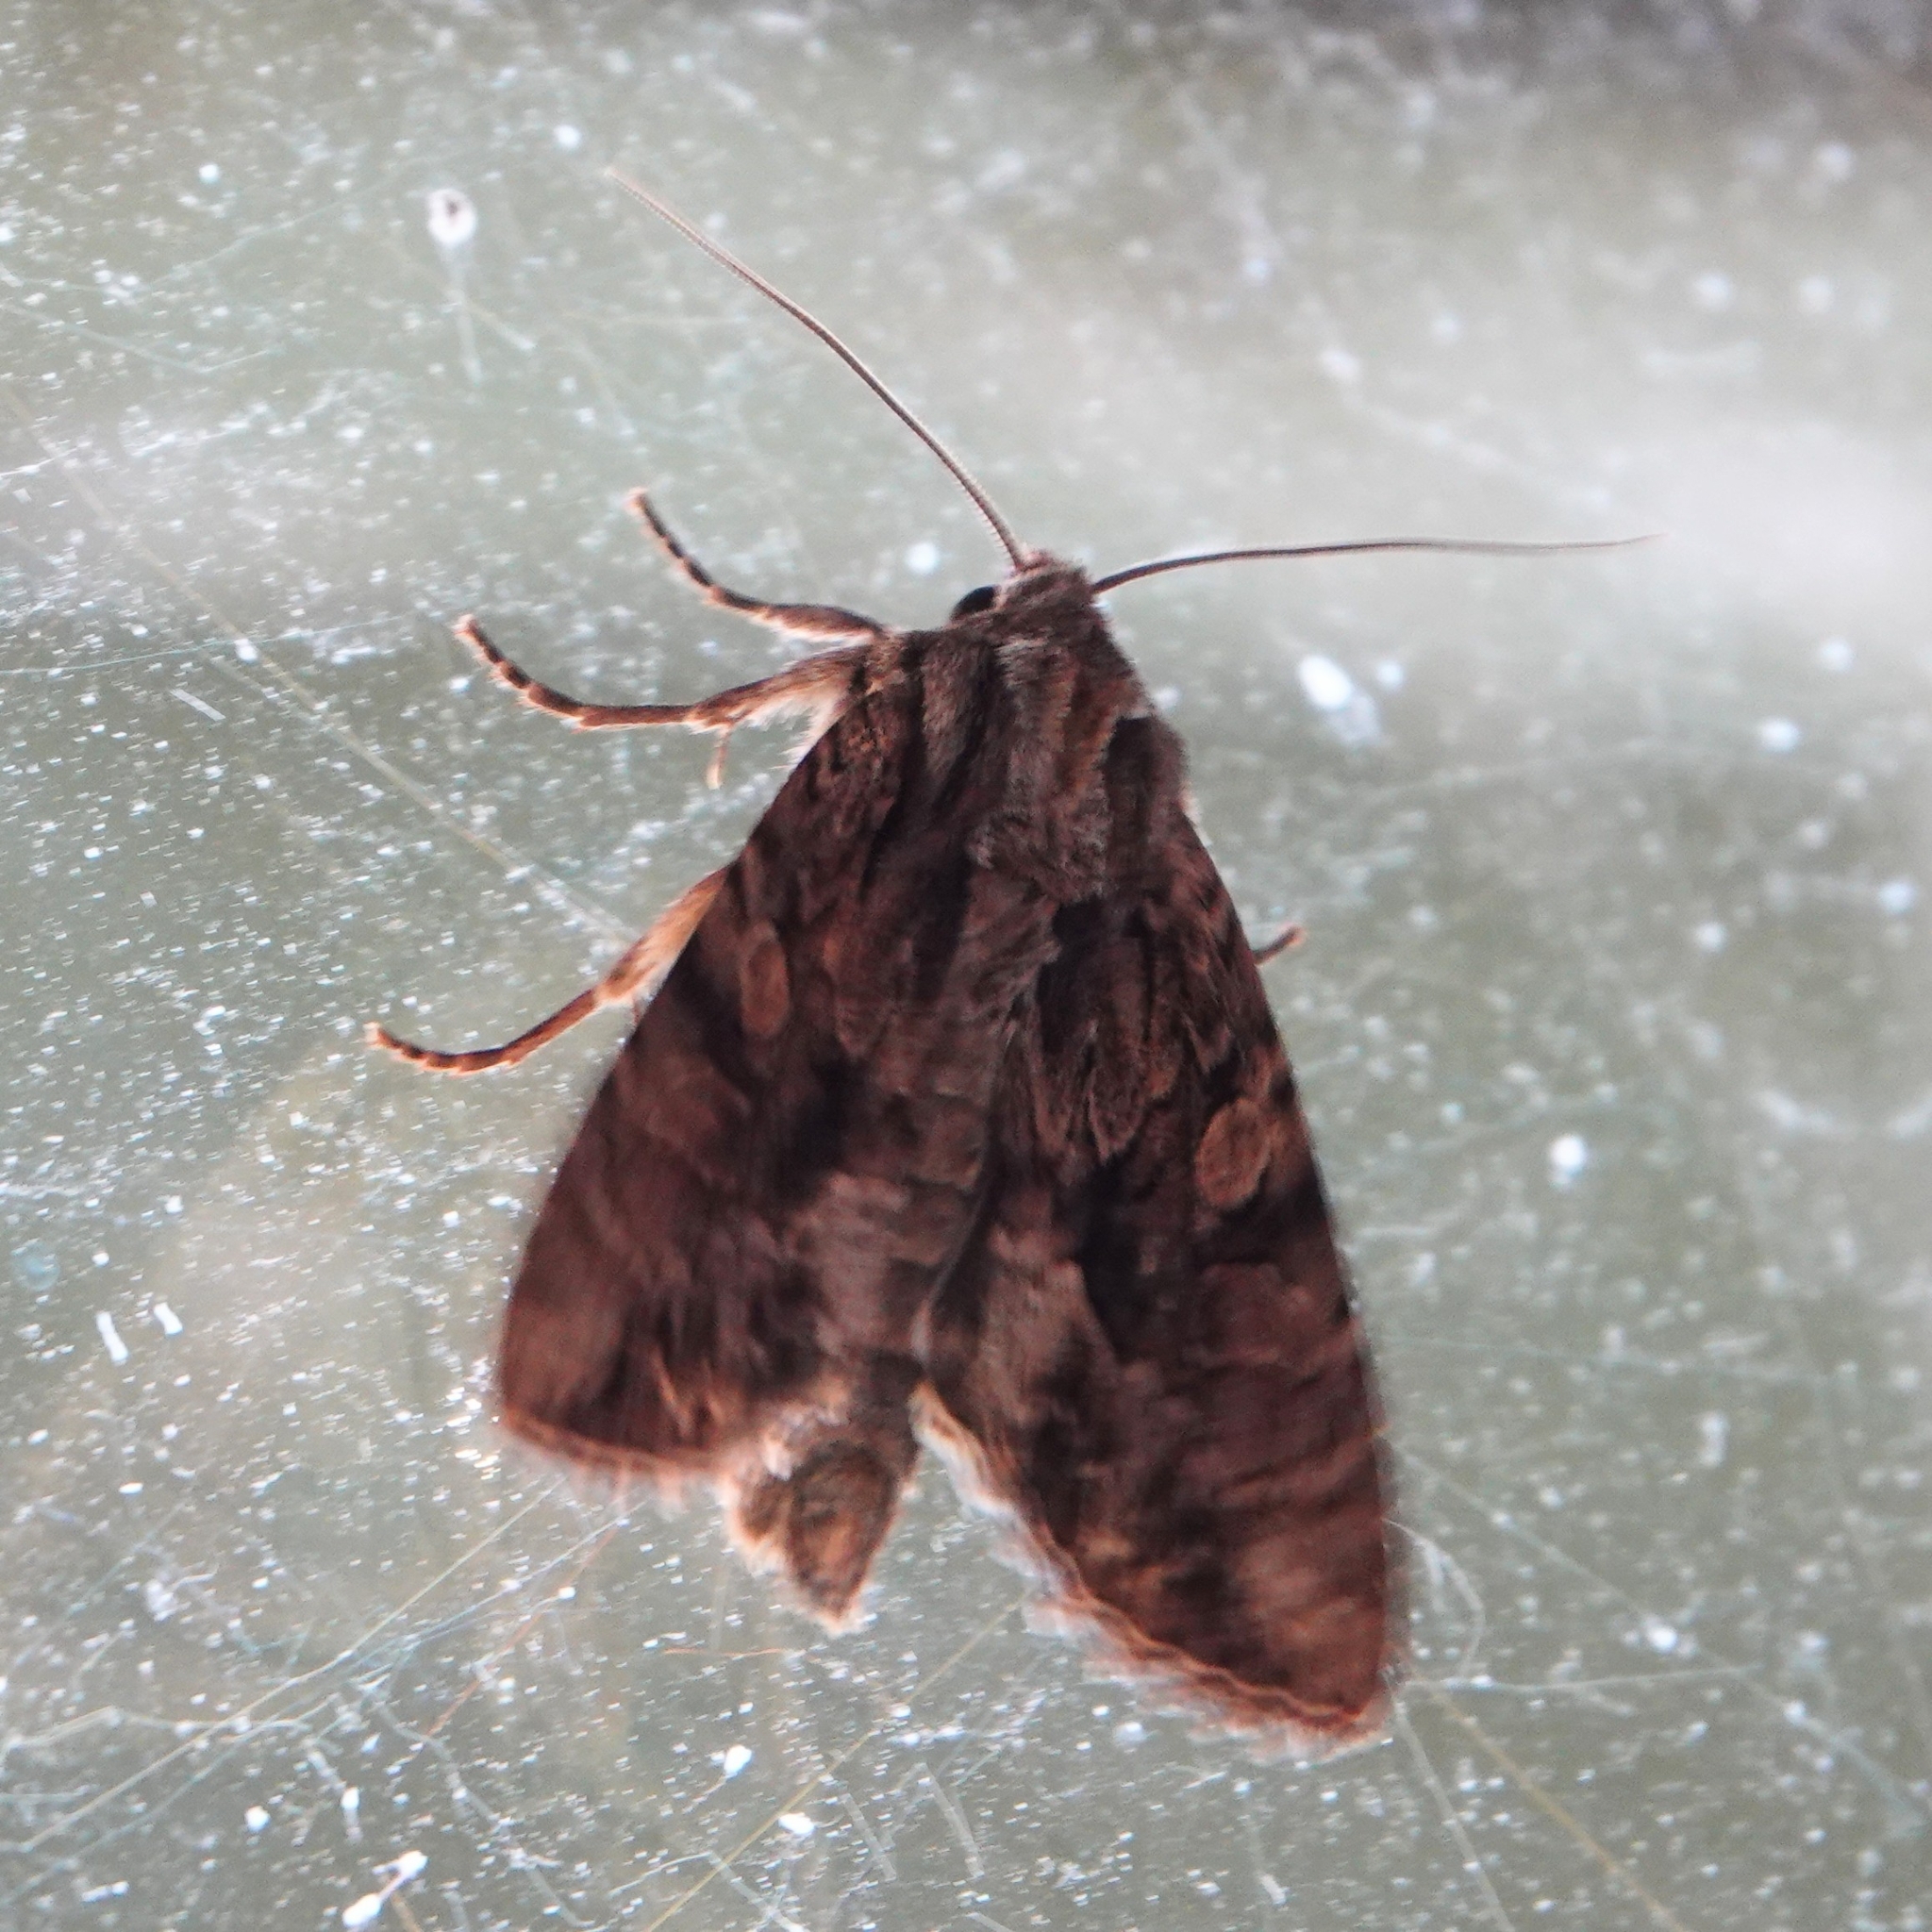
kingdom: Animalia
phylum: Arthropoda
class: Insecta
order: Lepidoptera
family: Noctuidae
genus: Apamea
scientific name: Apamea monoglypha
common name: Dark arches
